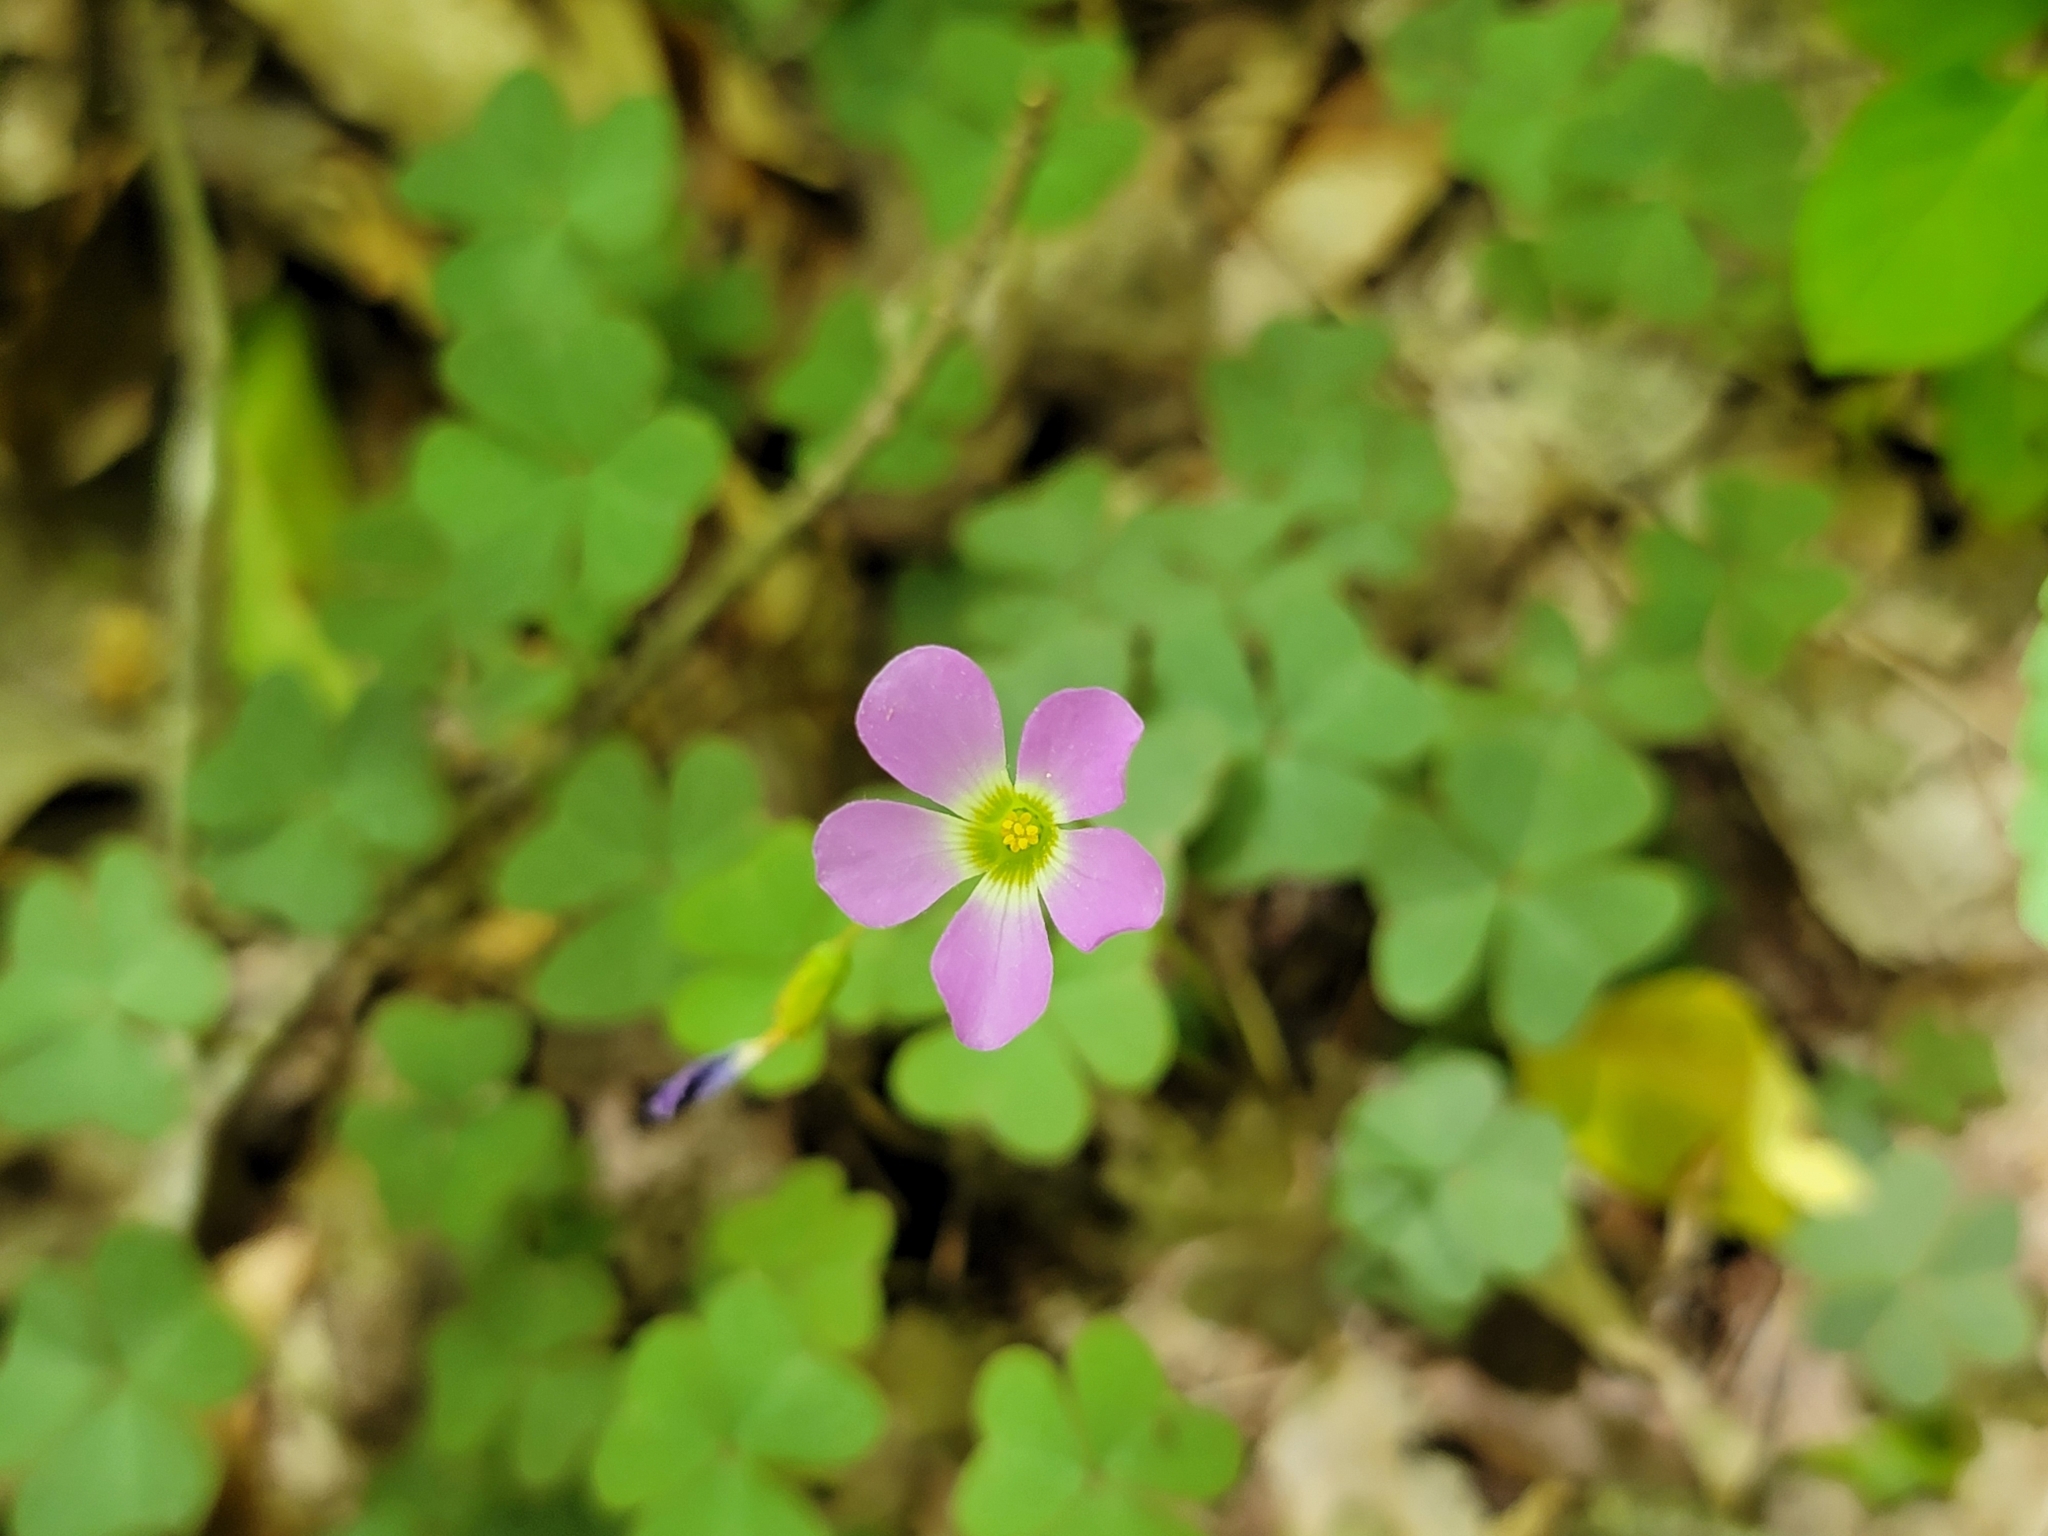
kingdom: Plantae
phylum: Tracheophyta
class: Magnoliopsida
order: Oxalidales
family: Oxalidaceae
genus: Oxalis
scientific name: Oxalis violacea
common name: Violet wood-sorrel
